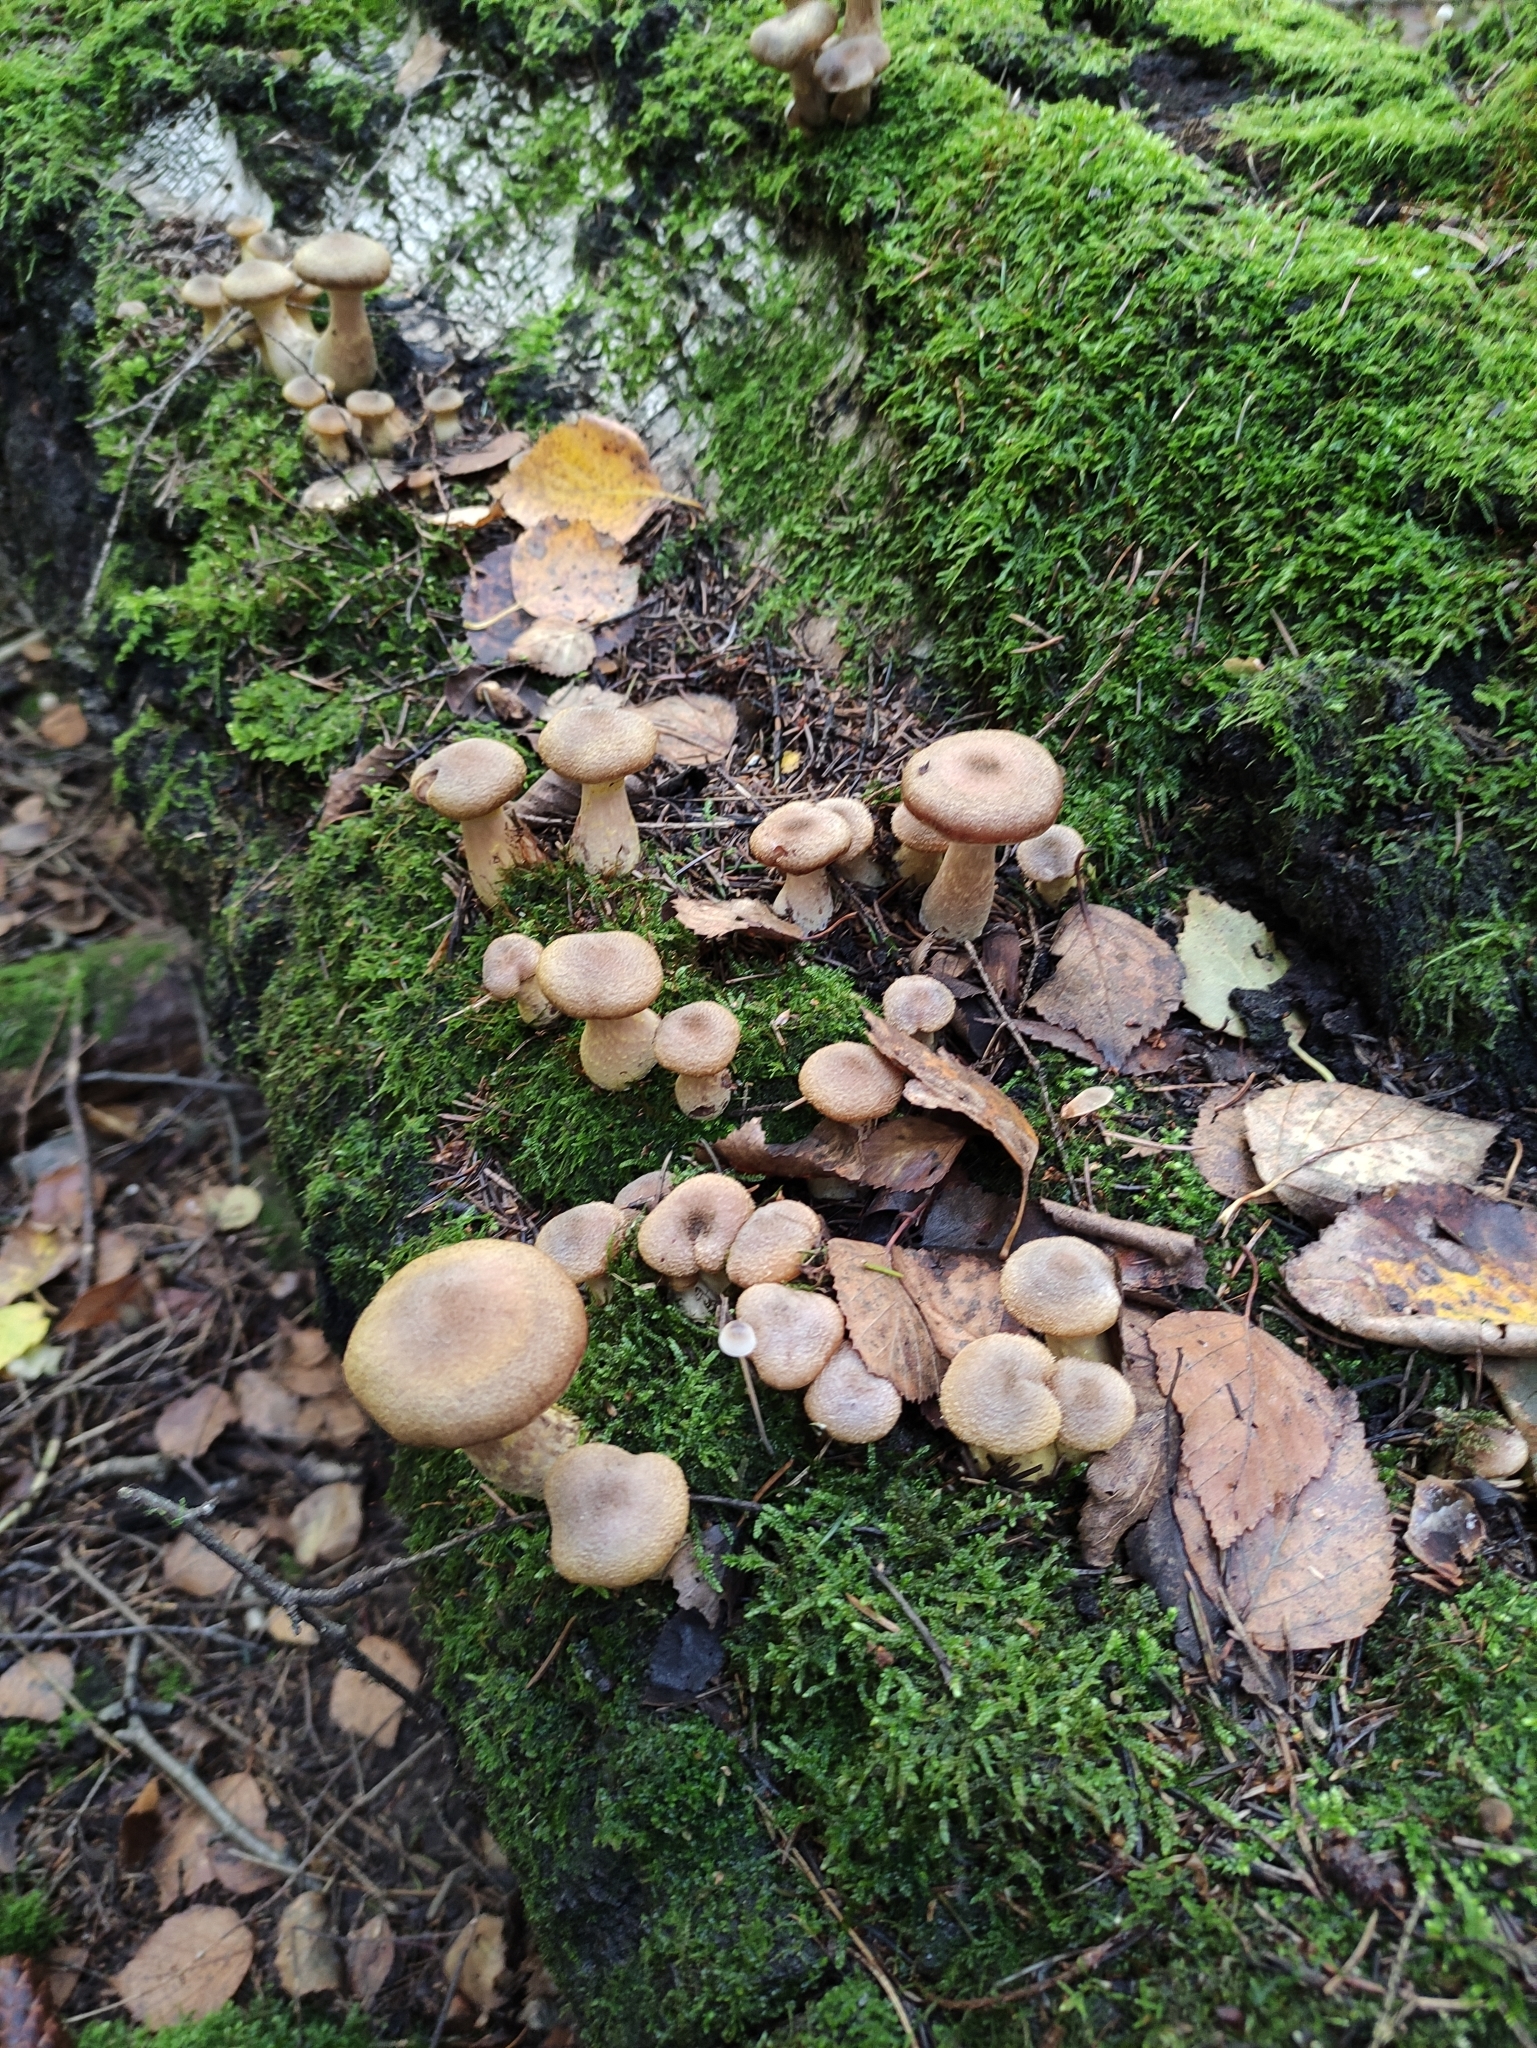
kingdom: Fungi
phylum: Basidiomycota
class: Agaricomycetes
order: Agaricales
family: Physalacriaceae
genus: Armillaria
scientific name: Armillaria ostoyae
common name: Dark honey fungus
